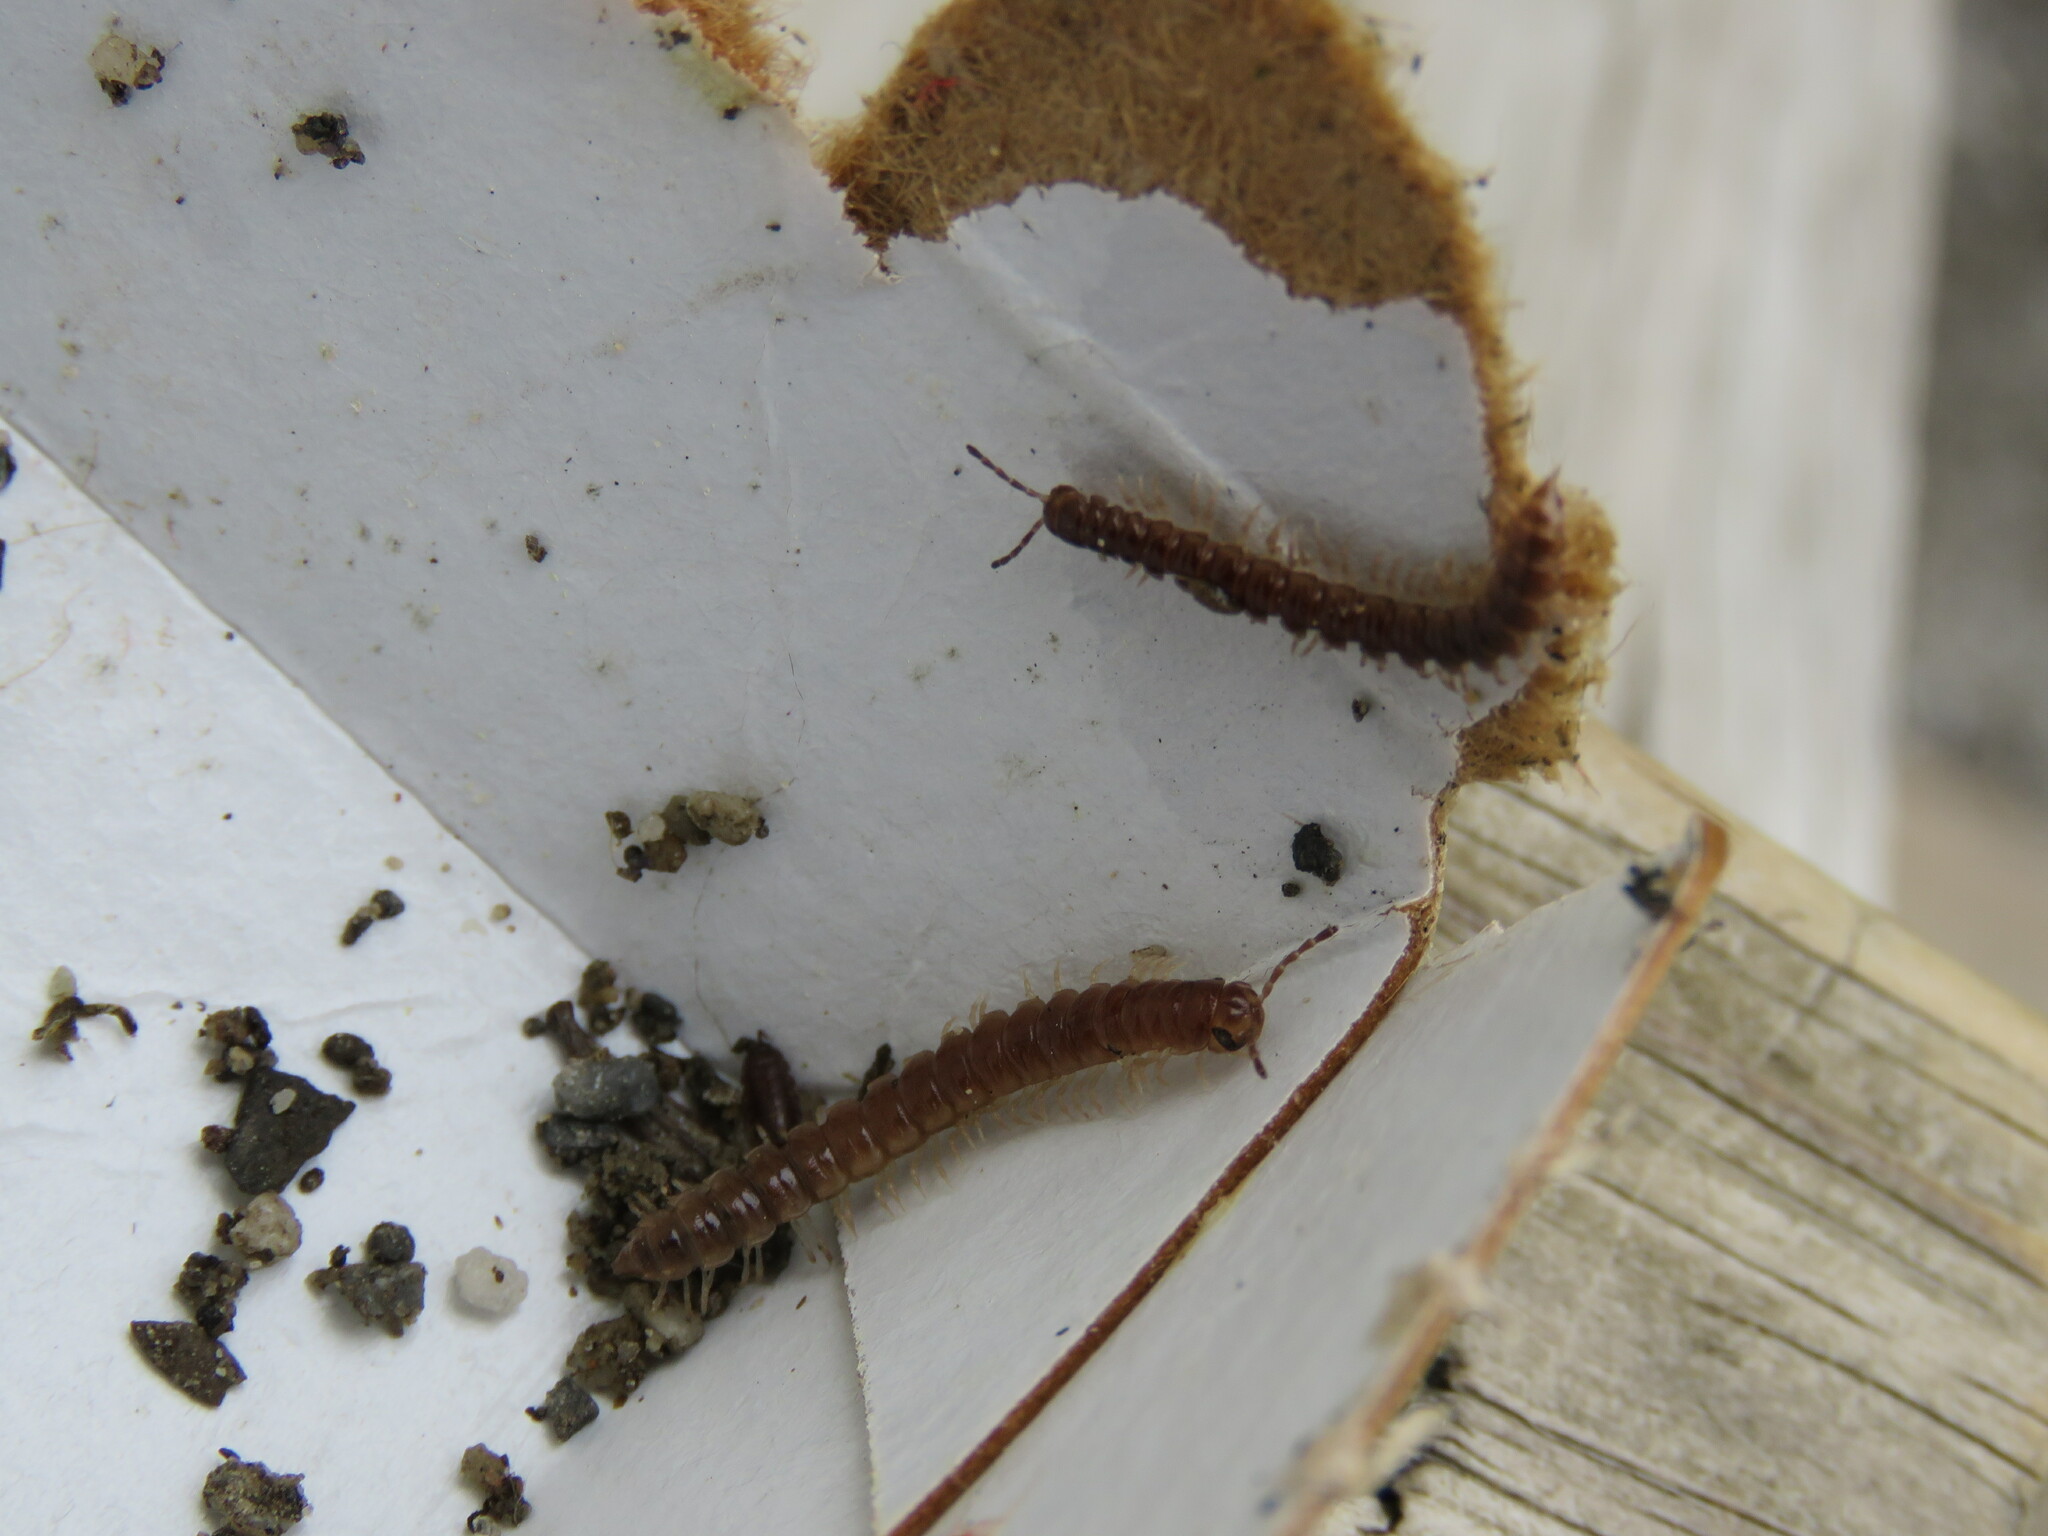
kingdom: Animalia
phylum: Arthropoda
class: Diplopoda
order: Polydesmida
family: Paradoxosomatidae
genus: Oxidus
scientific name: Oxidus gracilis
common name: Greenhouse millipede
